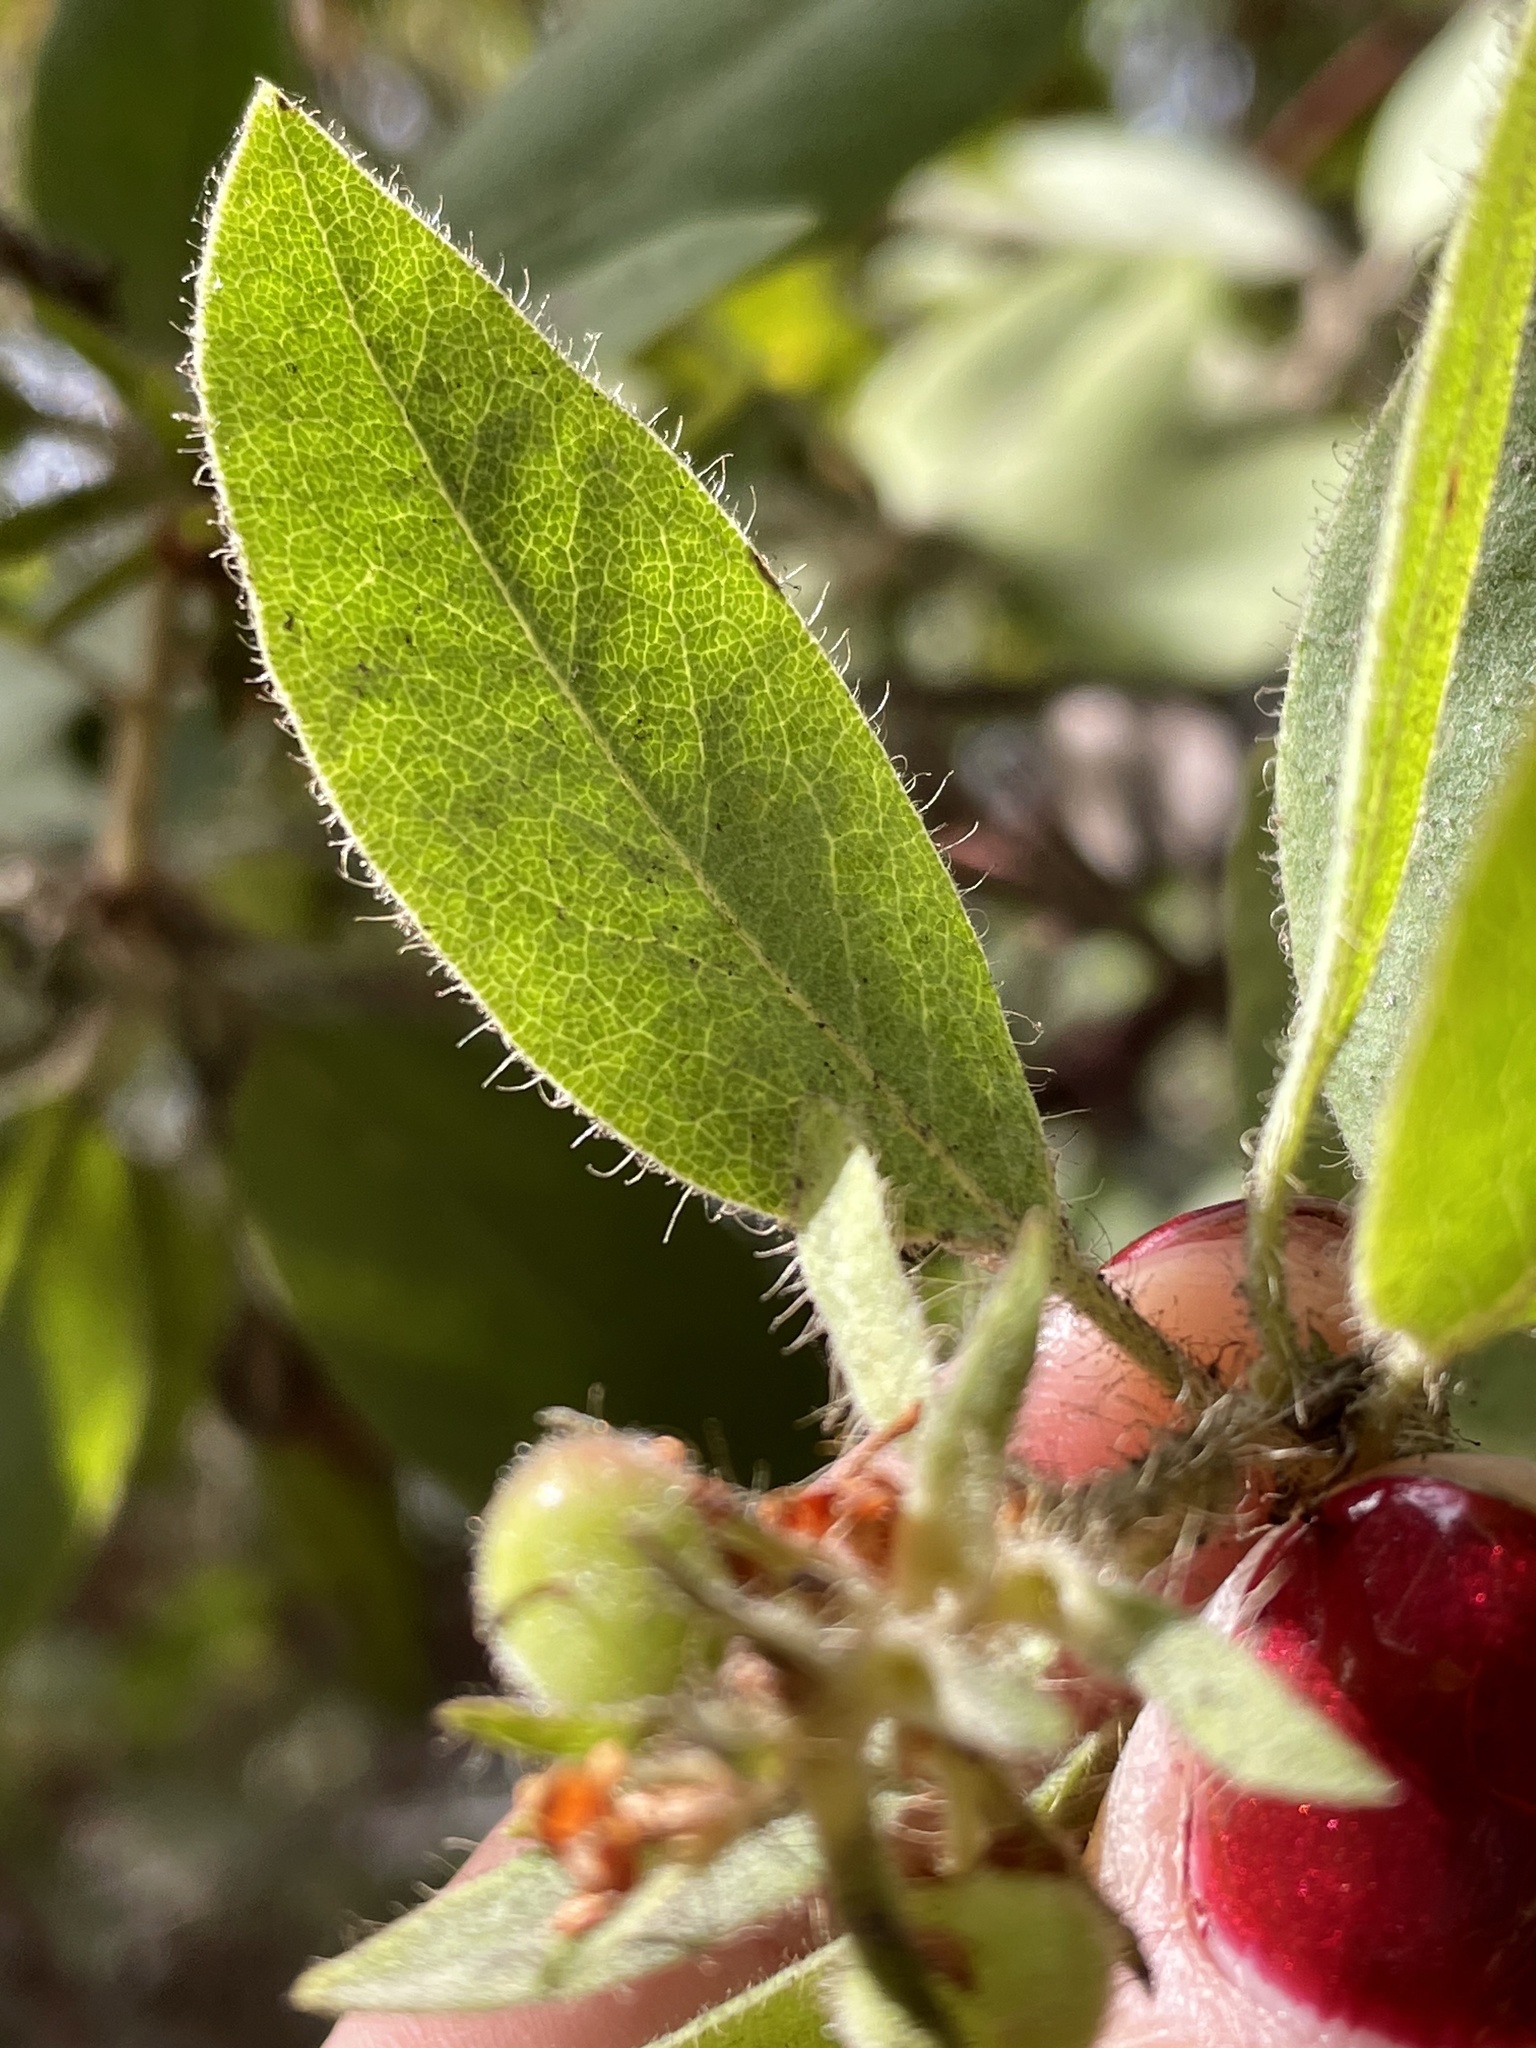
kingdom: Plantae
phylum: Tracheophyta
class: Magnoliopsida
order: Ericales
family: Ericaceae
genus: Arctostaphylos
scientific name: Arctostaphylos columbiana
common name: Bristly bearberry
